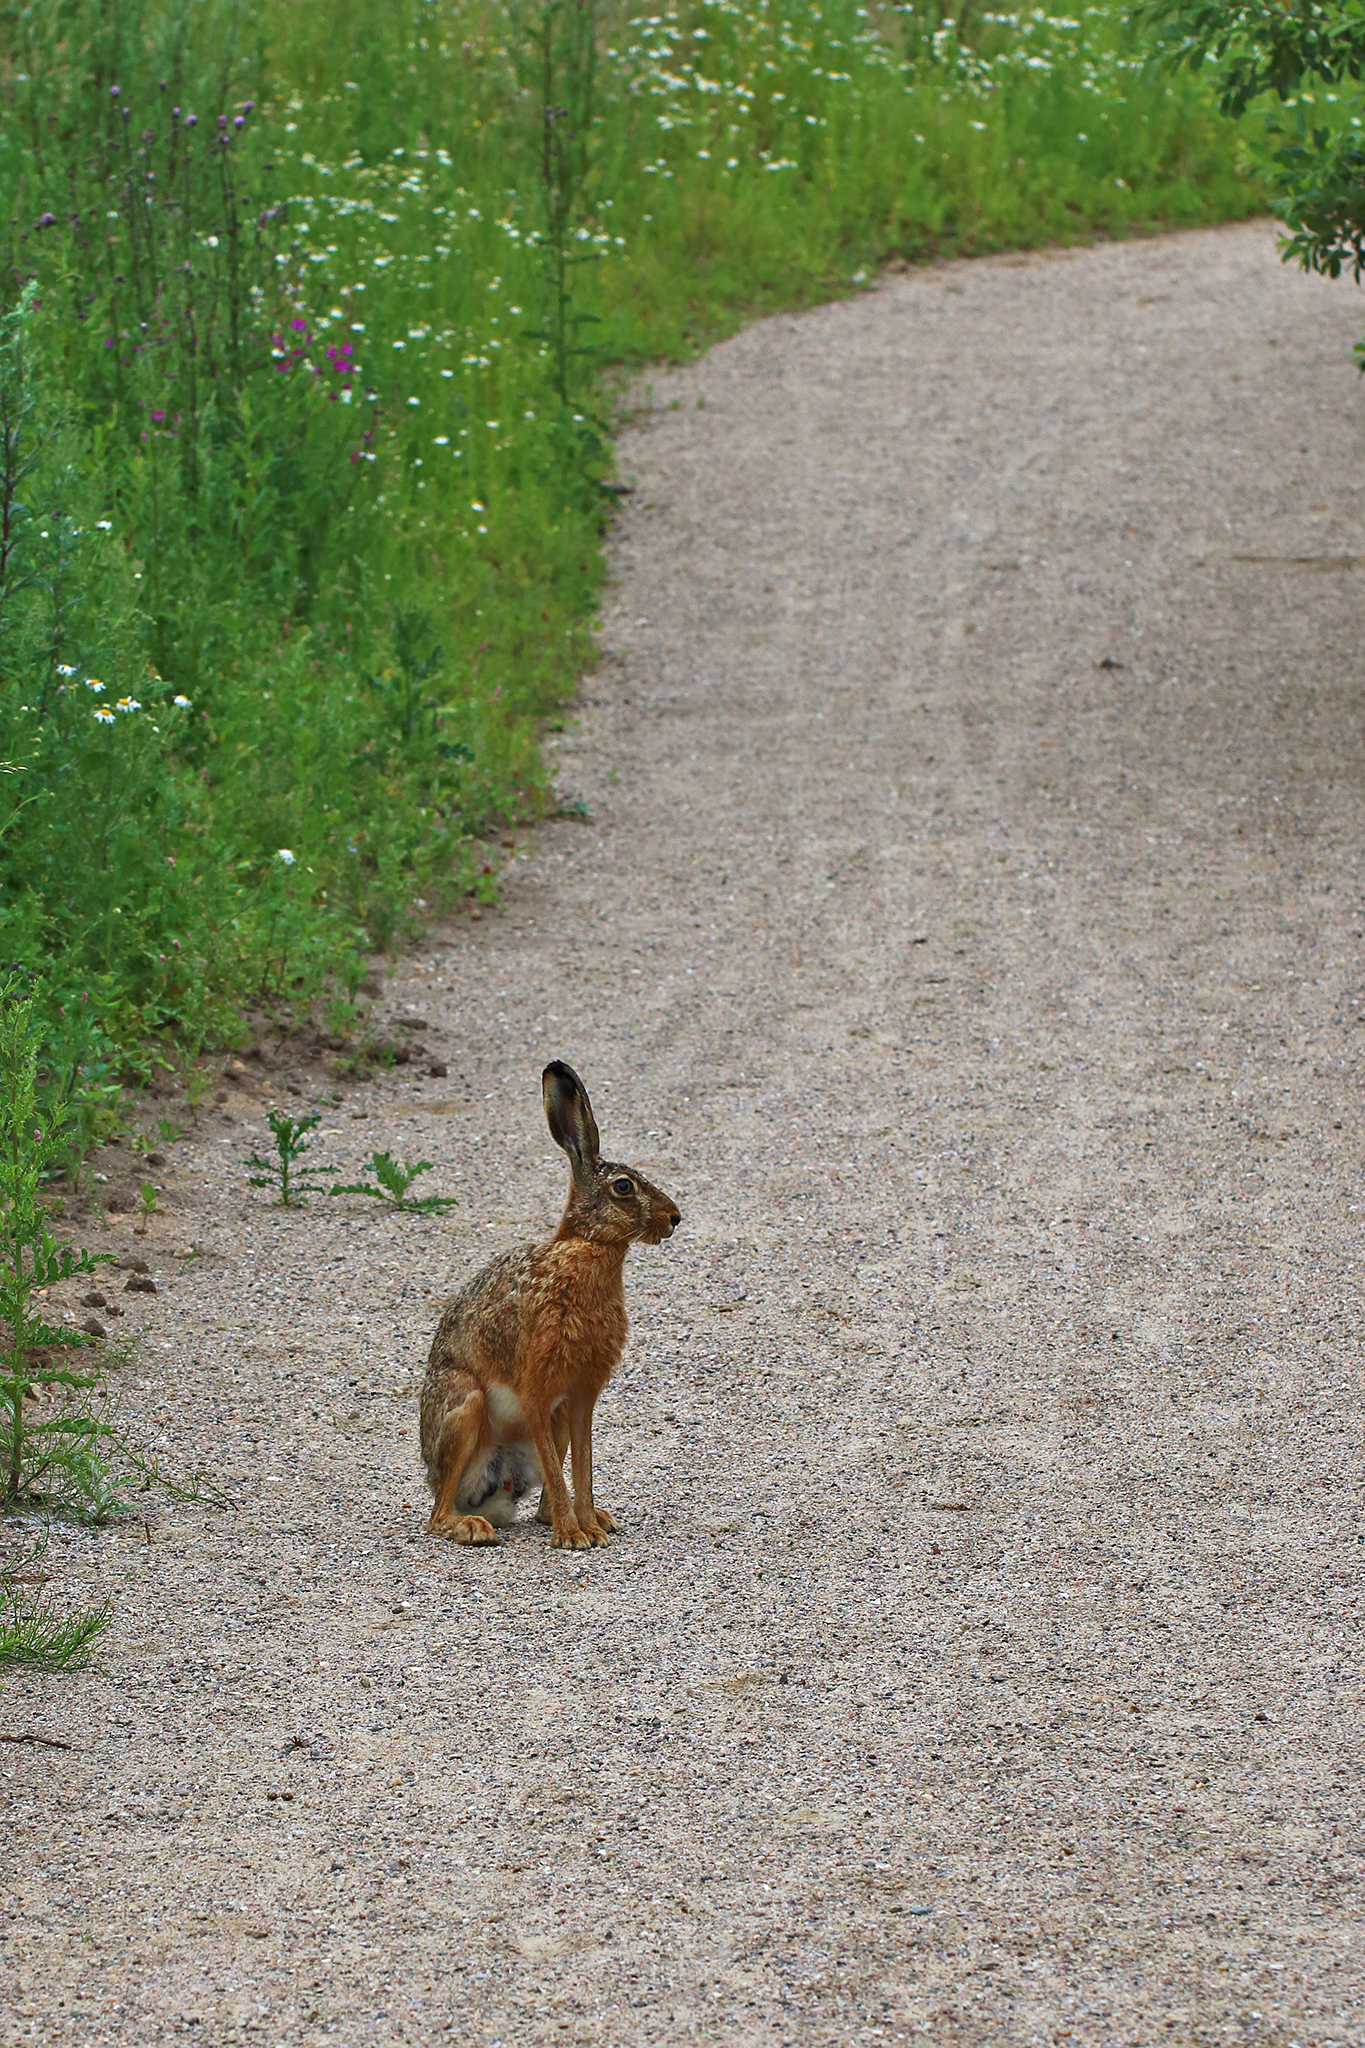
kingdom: Animalia
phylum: Chordata
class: Mammalia
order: Lagomorpha
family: Leporidae
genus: Lepus
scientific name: Lepus europaeus
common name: European hare
